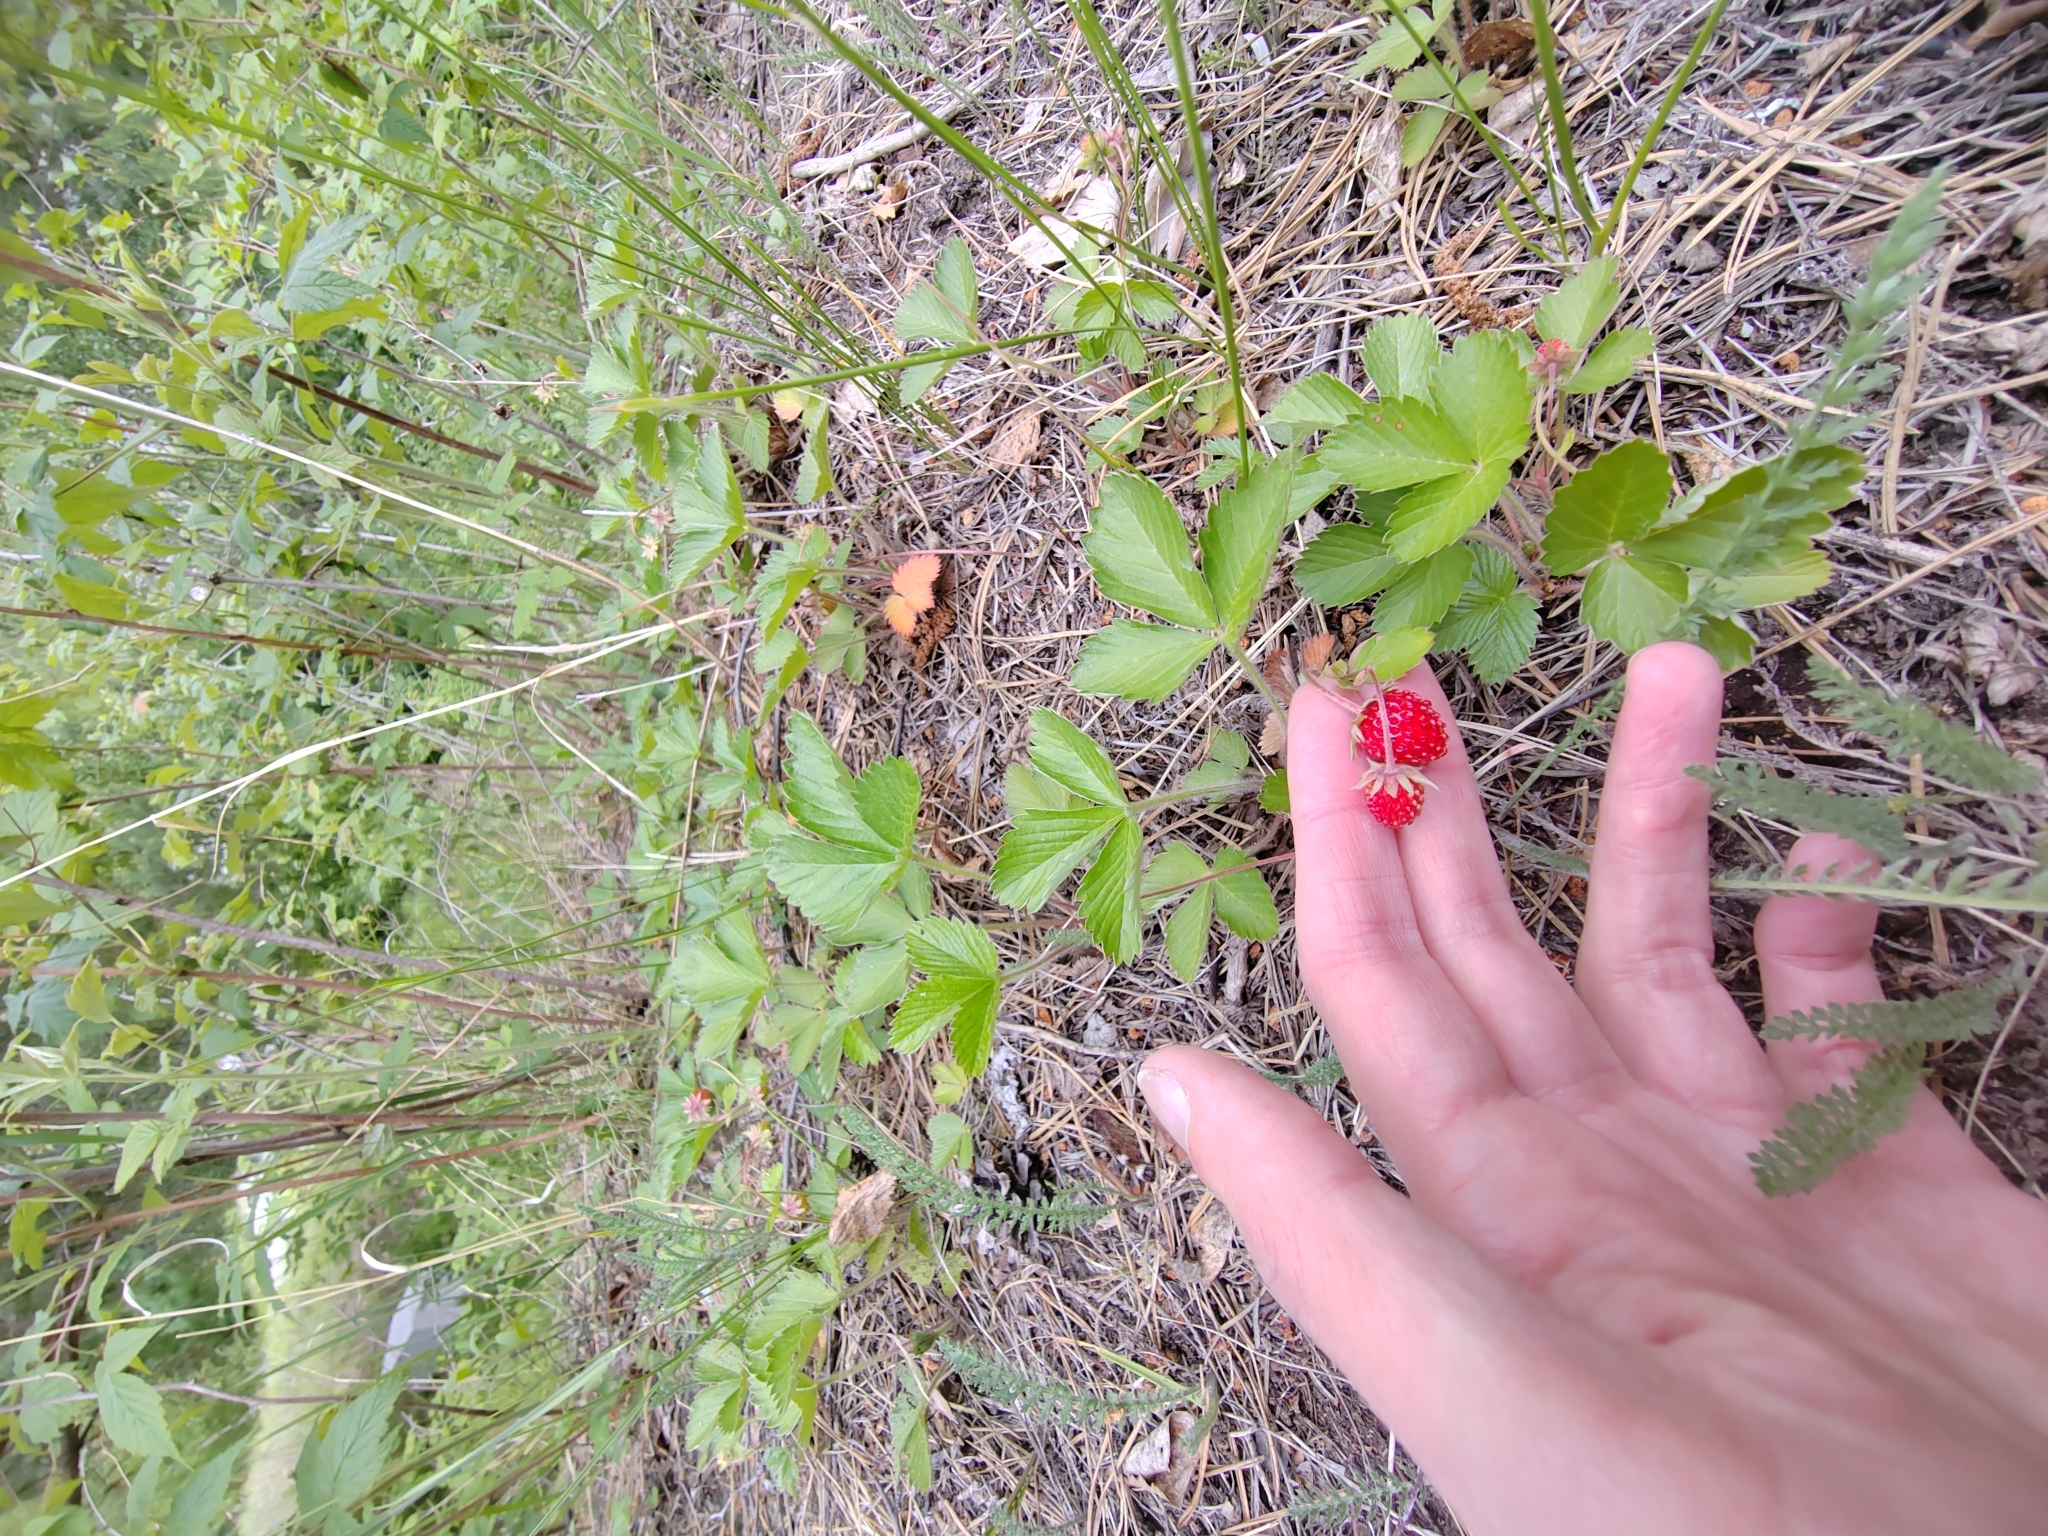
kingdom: Plantae
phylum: Tracheophyta
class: Magnoliopsida
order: Rosales
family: Rosaceae
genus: Fragaria
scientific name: Fragaria vesca
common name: Wild strawberry
